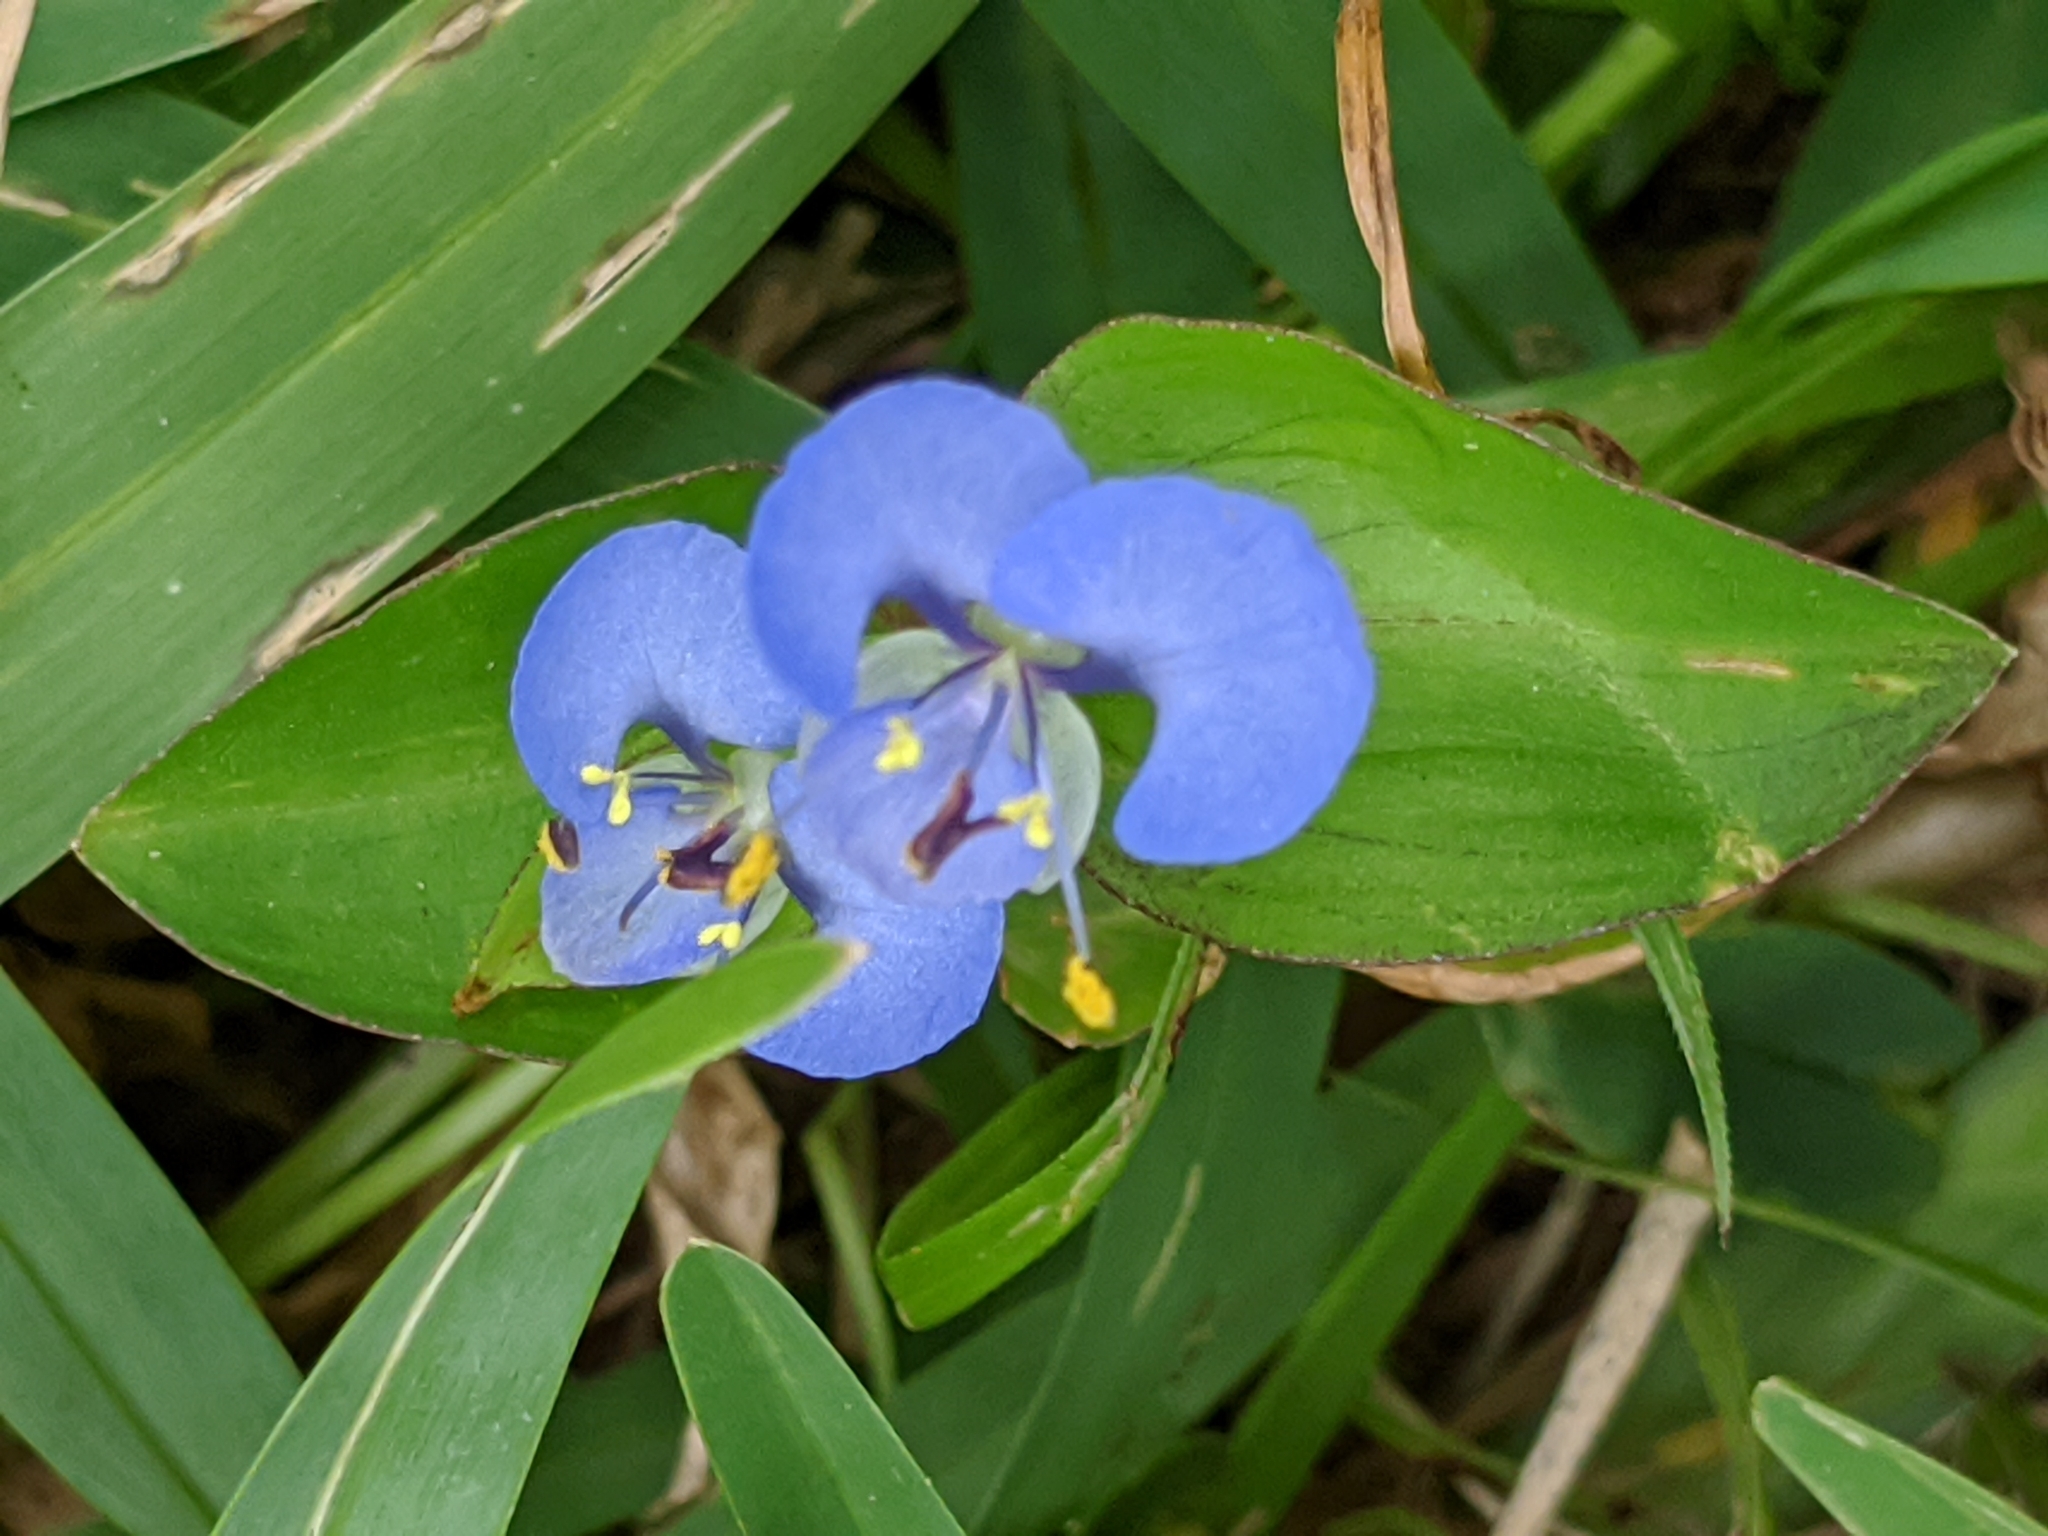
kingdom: Plantae
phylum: Tracheophyta
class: Liliopsida
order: Commelinales
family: Commelinaceae
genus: Commelina
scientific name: Commelina diffusa
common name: Climbing dayflower
